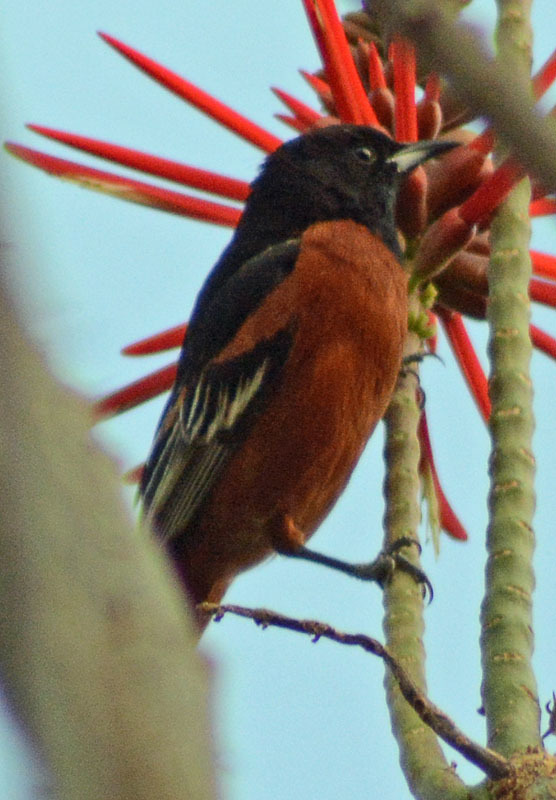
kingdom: Animalia
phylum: Chordata
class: Aves
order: Passeriformes
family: Icteridae
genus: Icterus
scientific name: Icterus spurius
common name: Orchard oriole
